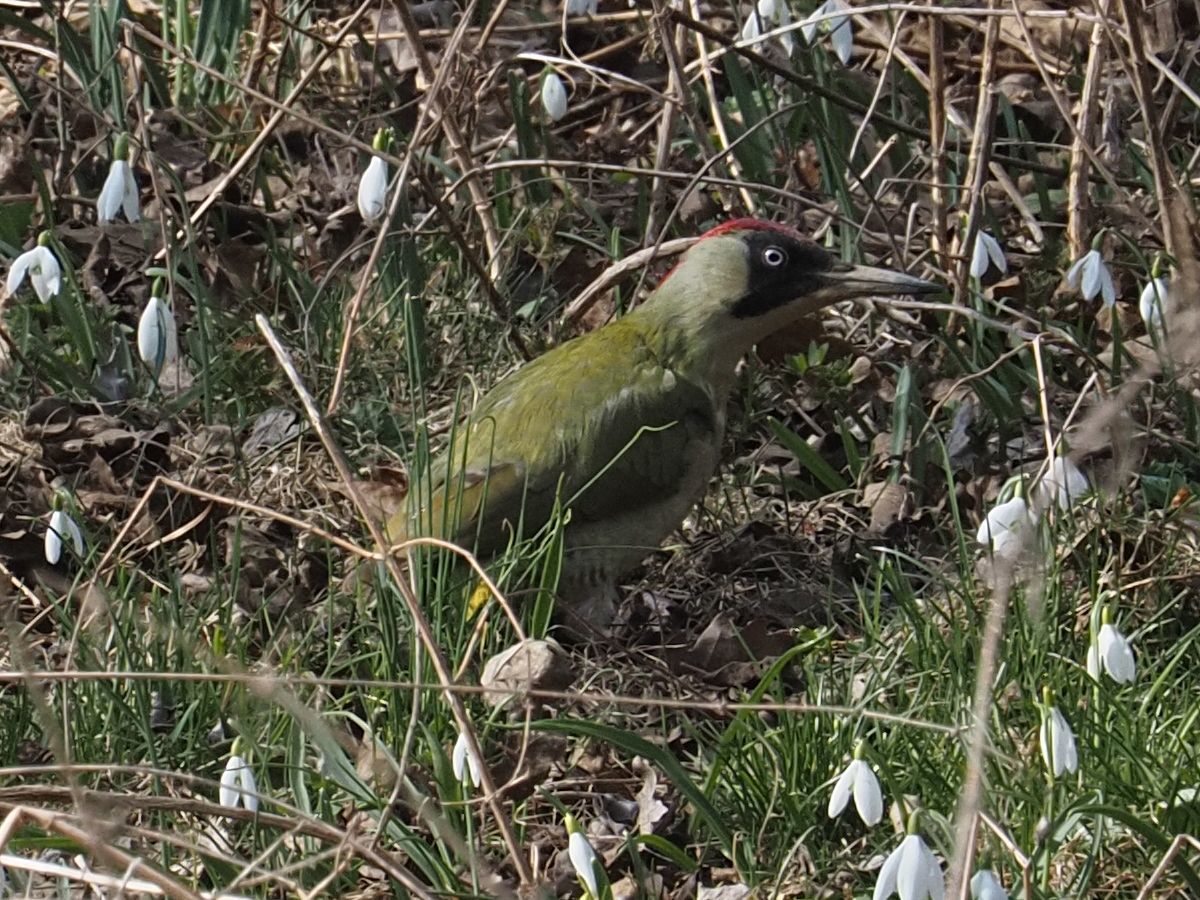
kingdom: Animalia
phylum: Chordata
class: Aves
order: Piciformes
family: Picidae
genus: Picus
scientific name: Picus viridis
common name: European green woodpecker
